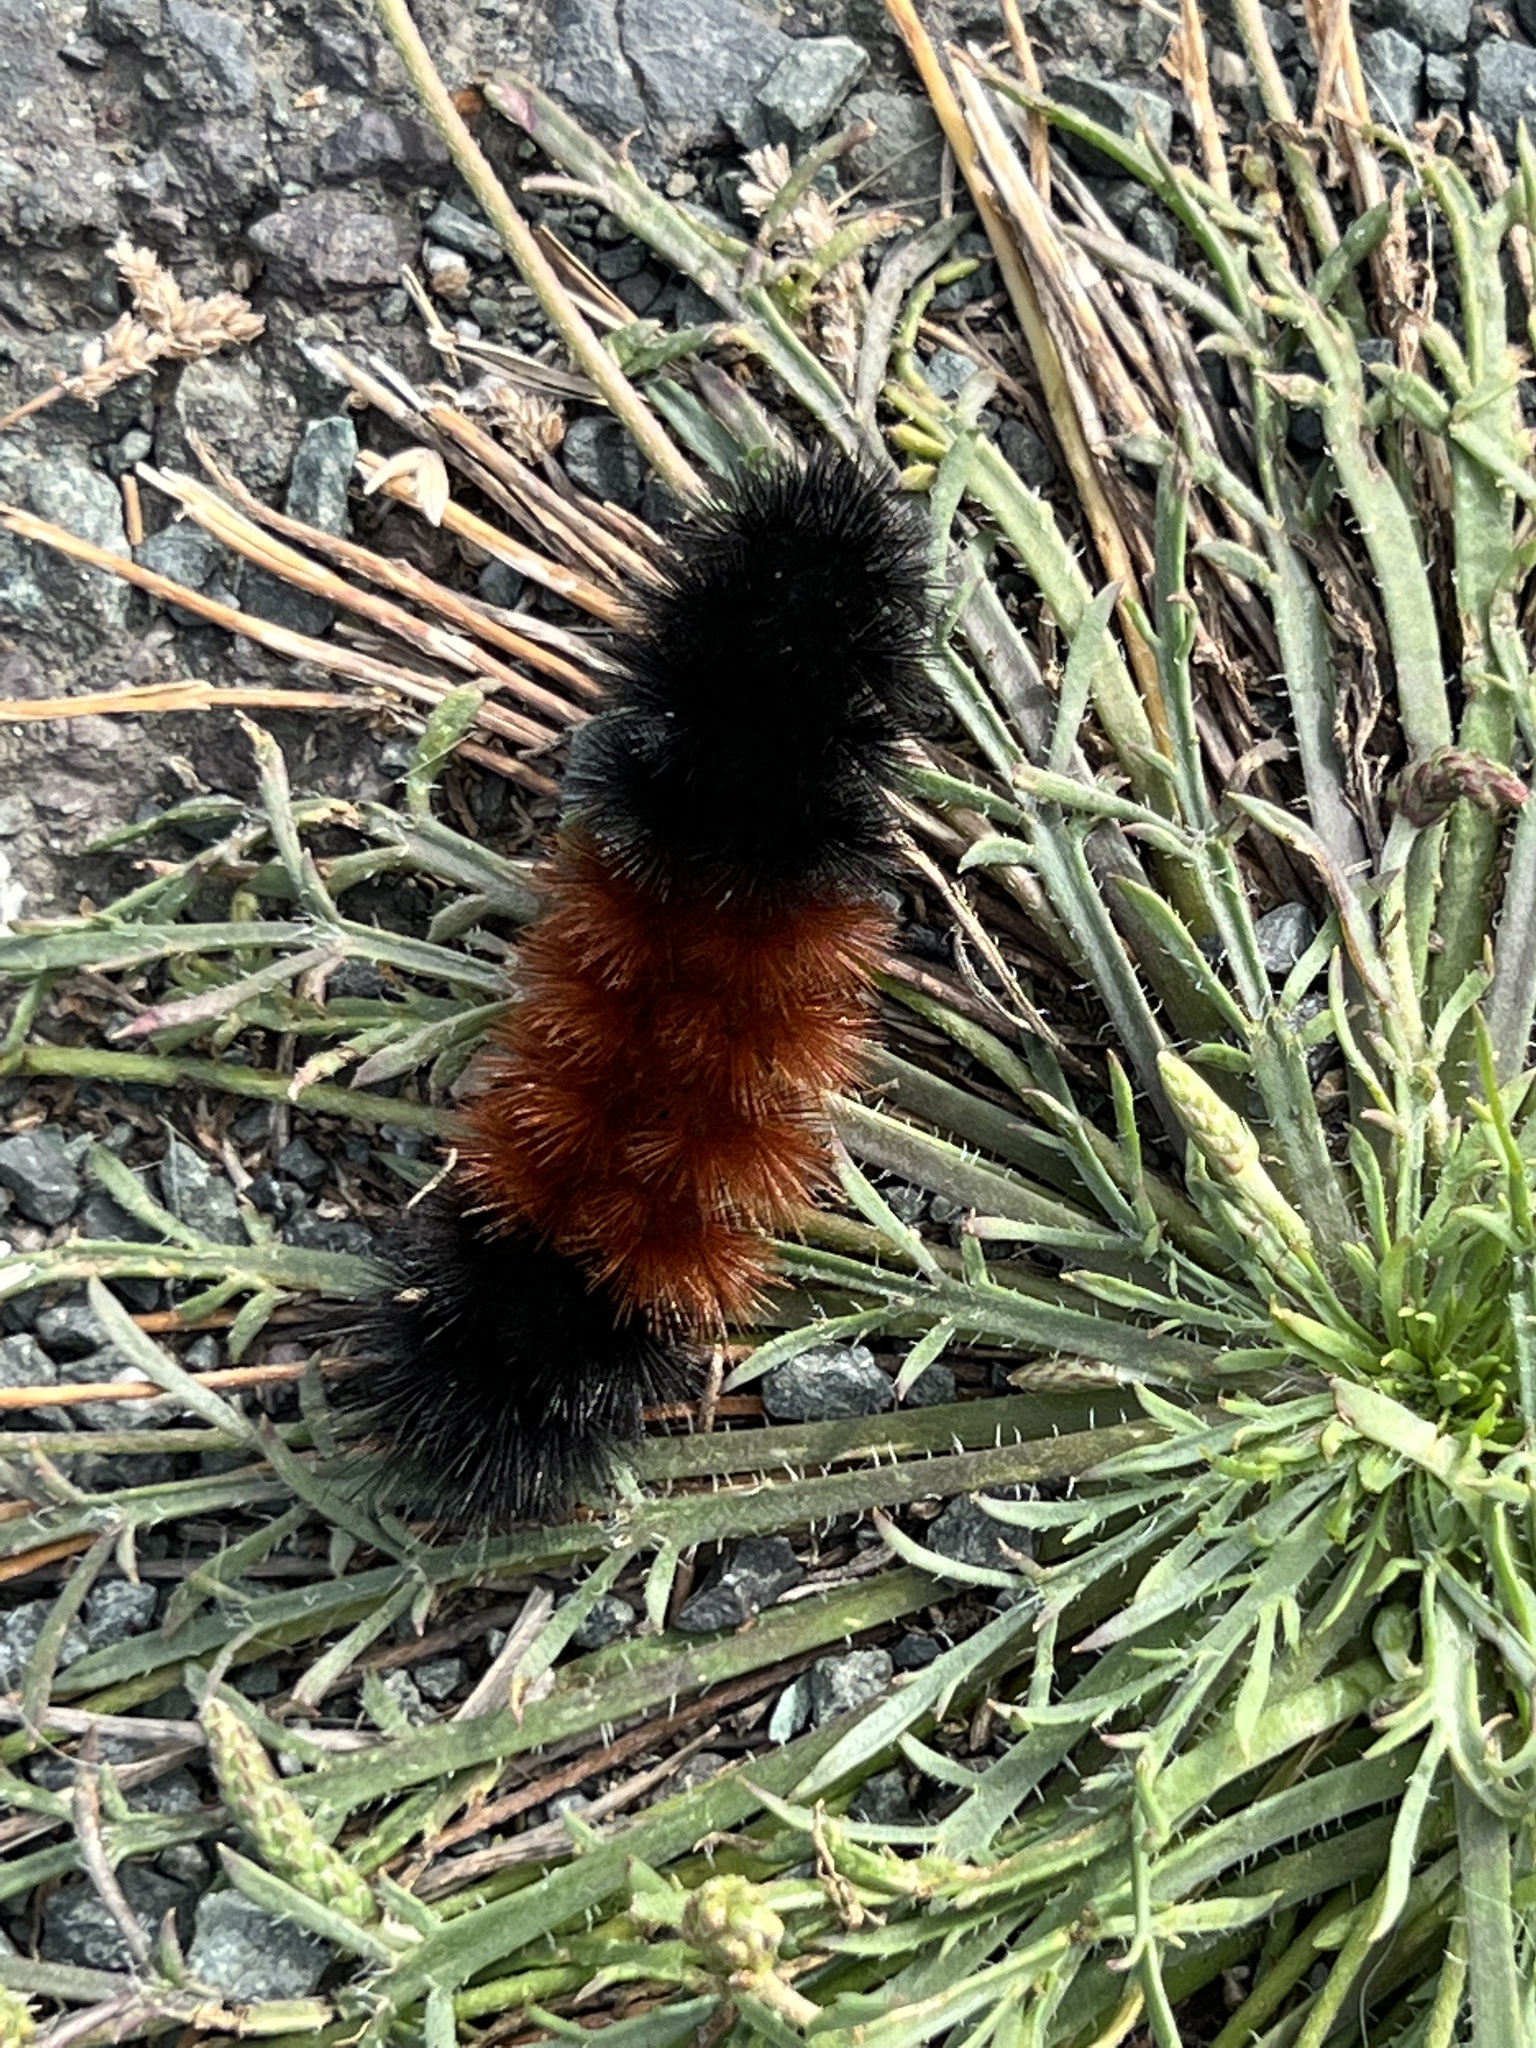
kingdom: Animalia
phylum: Arthropoda
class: Insecta
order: Lepidoptera
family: Erebidae
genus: Pyrrharctia
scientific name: Pyrrharctia isabella
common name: Isabella tiger moth
